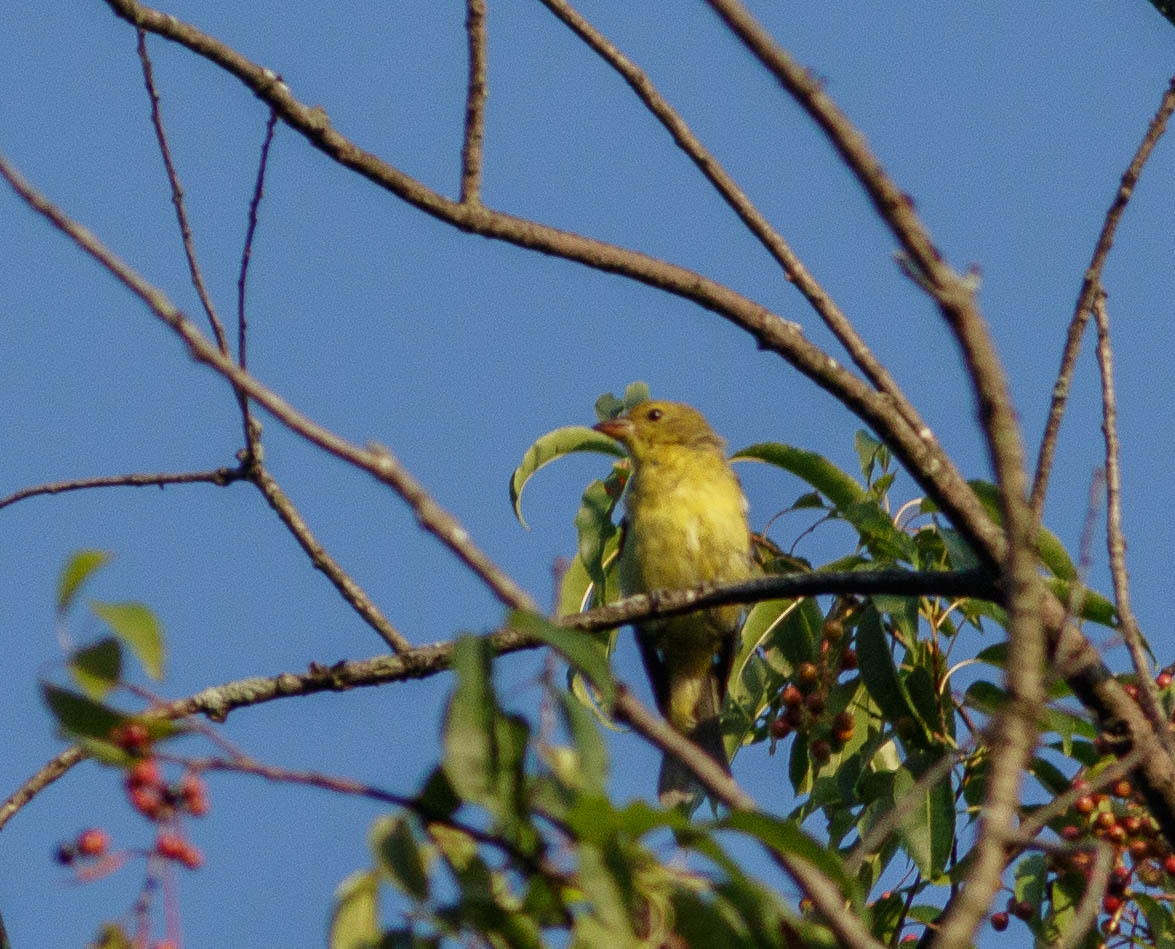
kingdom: Animalia
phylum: Chordata
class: Aves
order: Passeriformes
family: Cardinalidae
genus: Piranga
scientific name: Piranga olivacea
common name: Scarlet tanager
